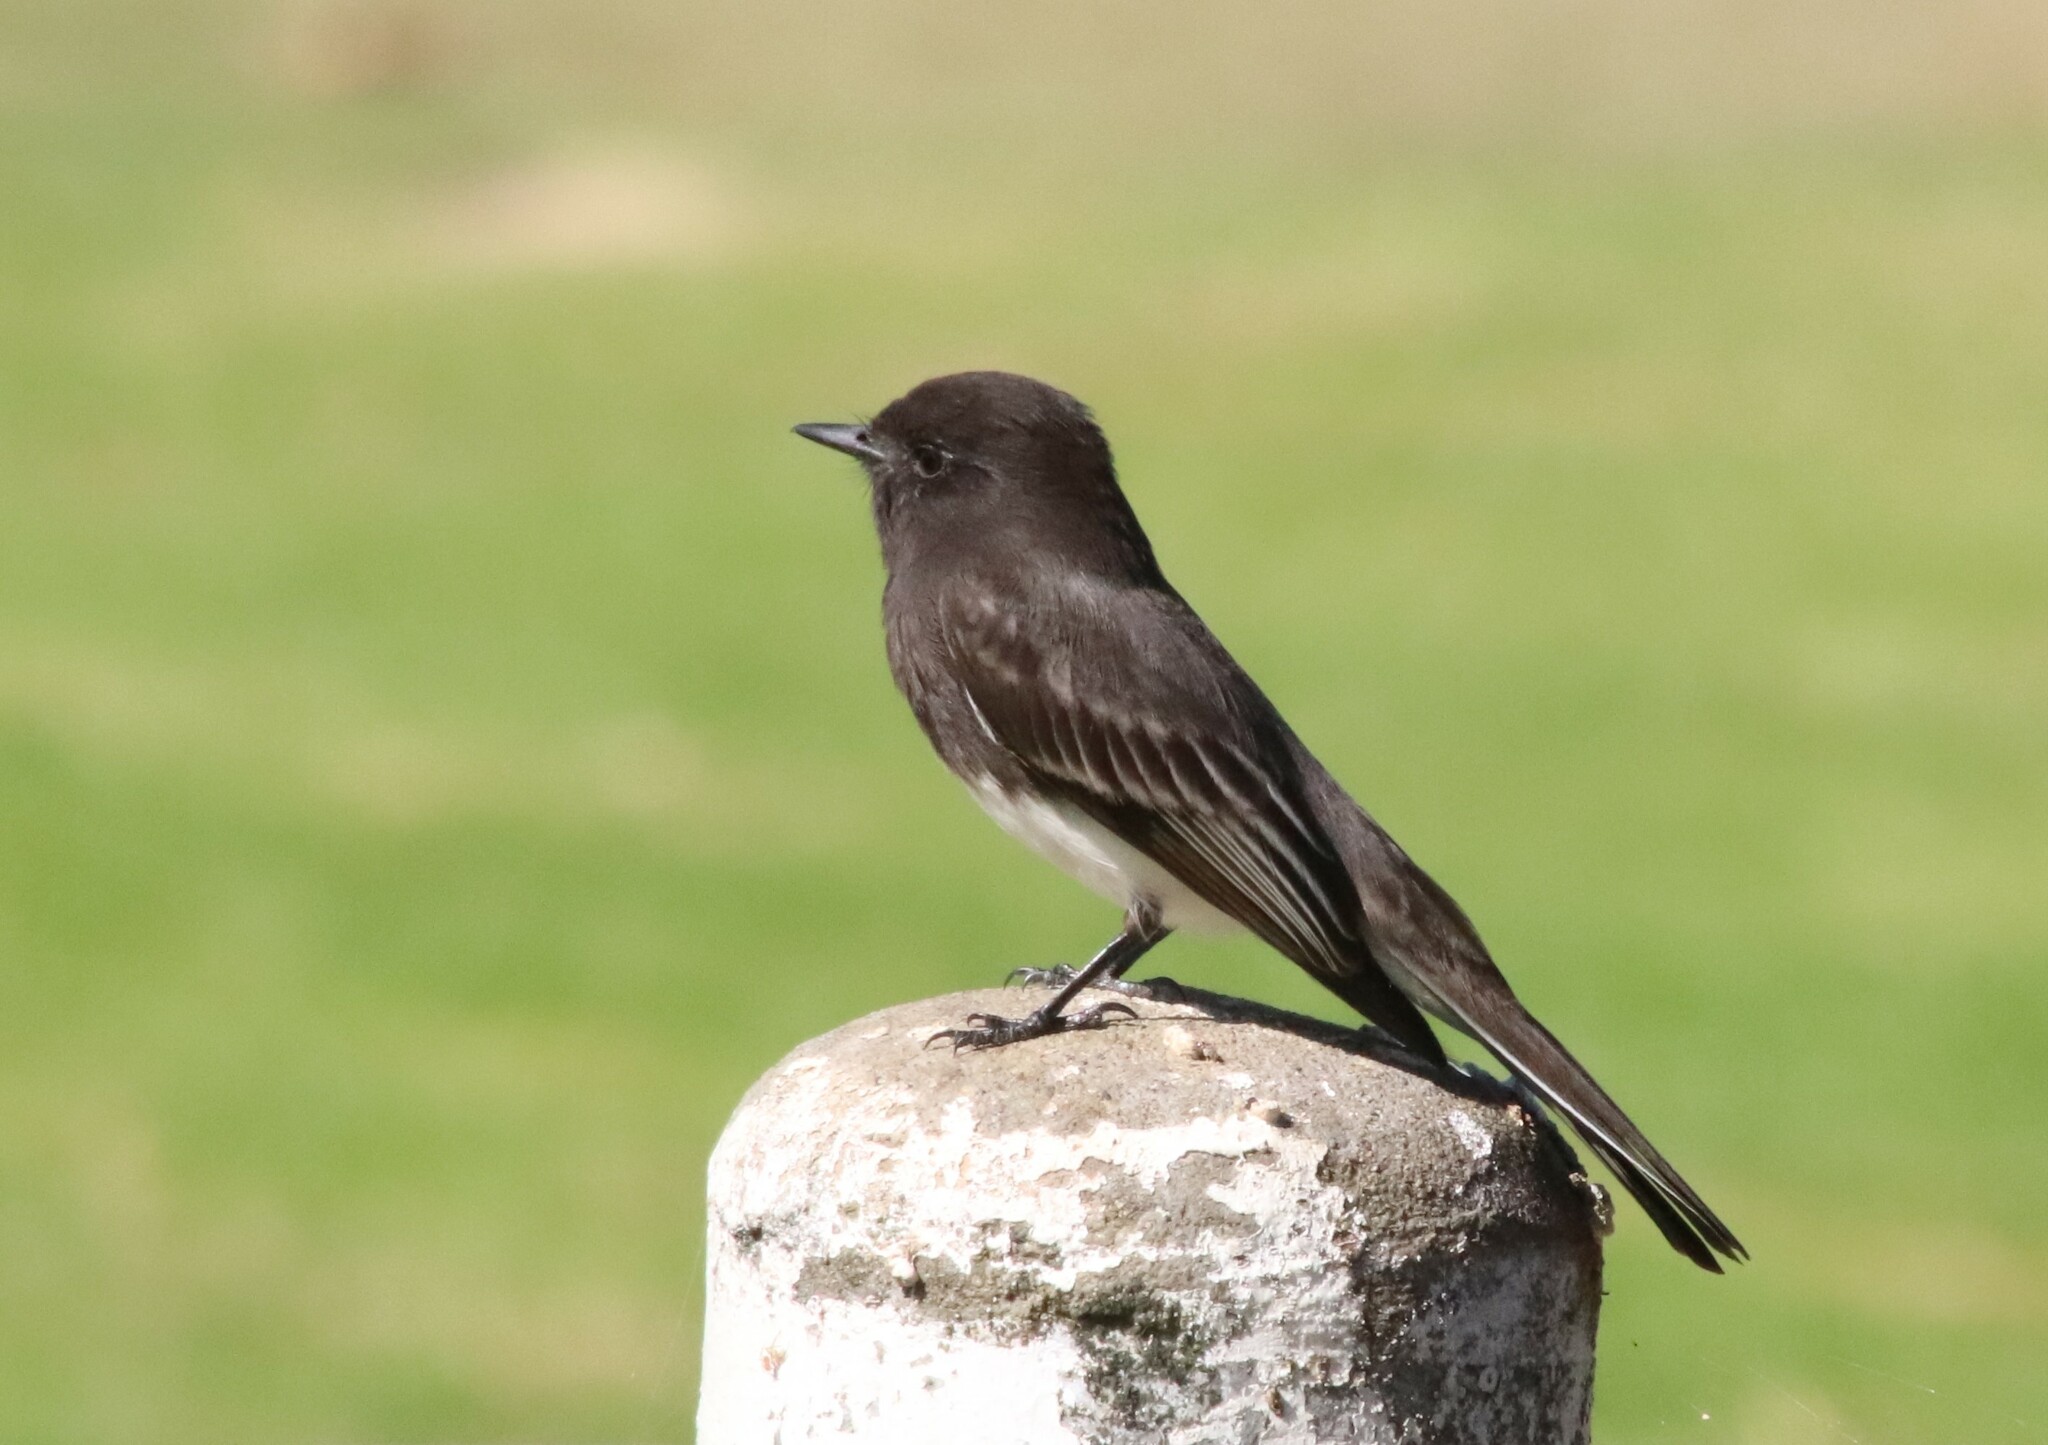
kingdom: Animalia
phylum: Chordata
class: Aves
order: Passeriformes
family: Tyrannidae
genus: Sayornis
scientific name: Sayornis nigricans
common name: Black phoebe
